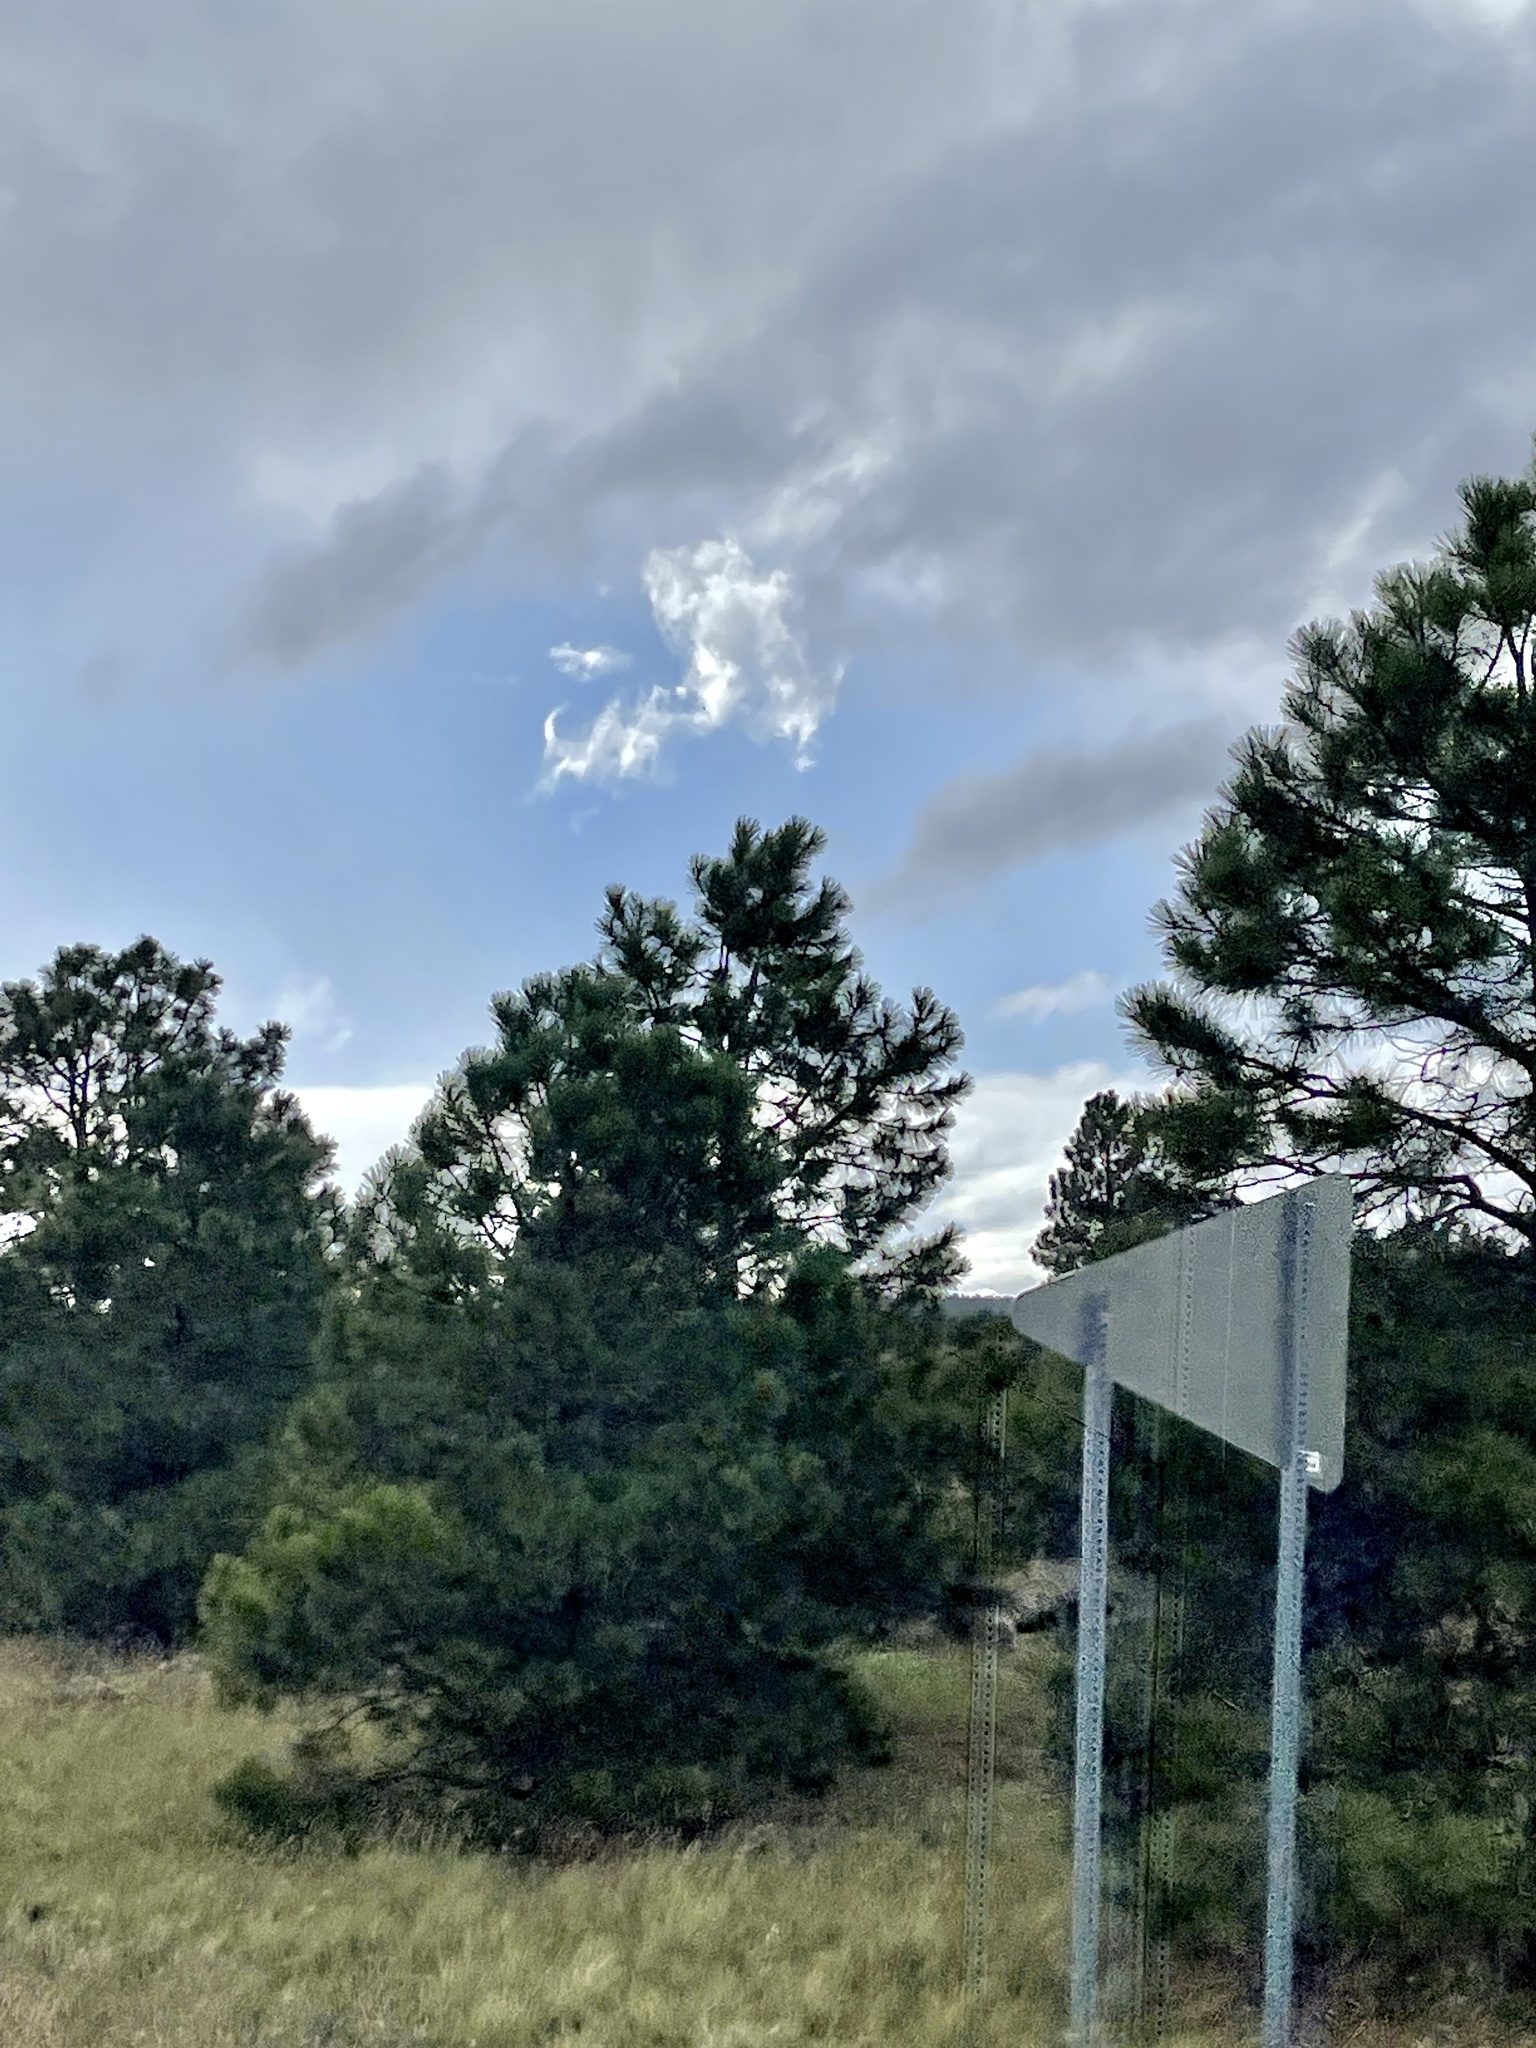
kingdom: Plantae
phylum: Tracheophyta
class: Pinopsida
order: Pinales
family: Pinaceae
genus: Pinus
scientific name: Pinus ponderosa
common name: Western yellow-pine
